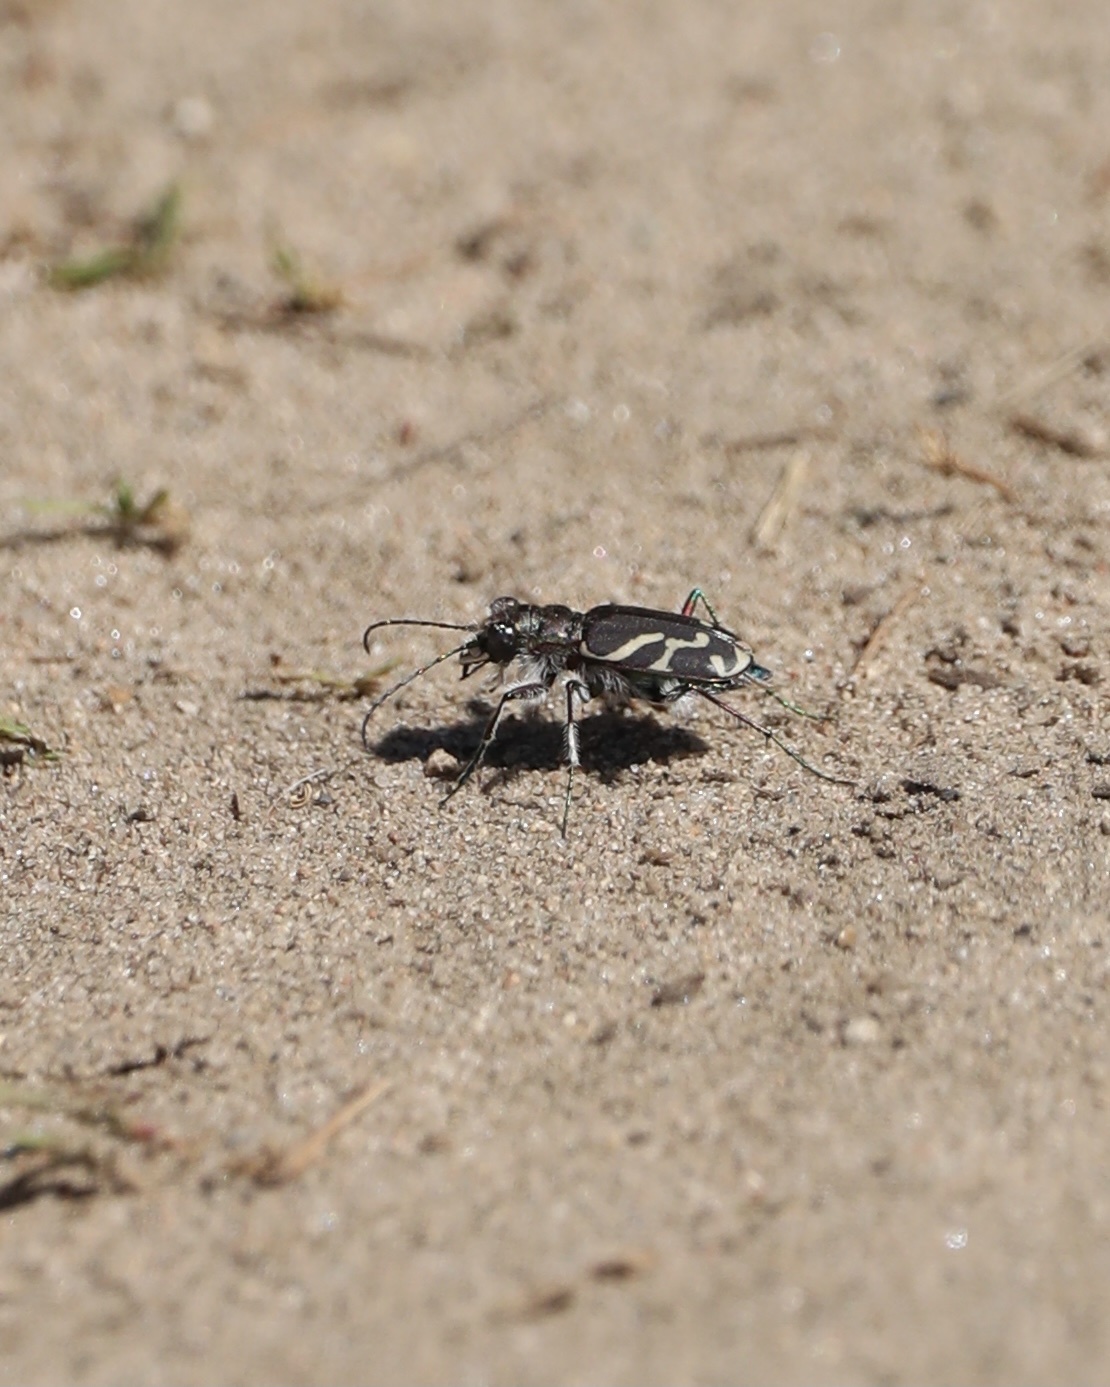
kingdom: Animalia
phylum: Arthropoda
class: Insecta
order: Coleoptera
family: Carabidae
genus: Cicindela
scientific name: Cicindela tranquebarica
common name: Oblique-lined tiger beetle
